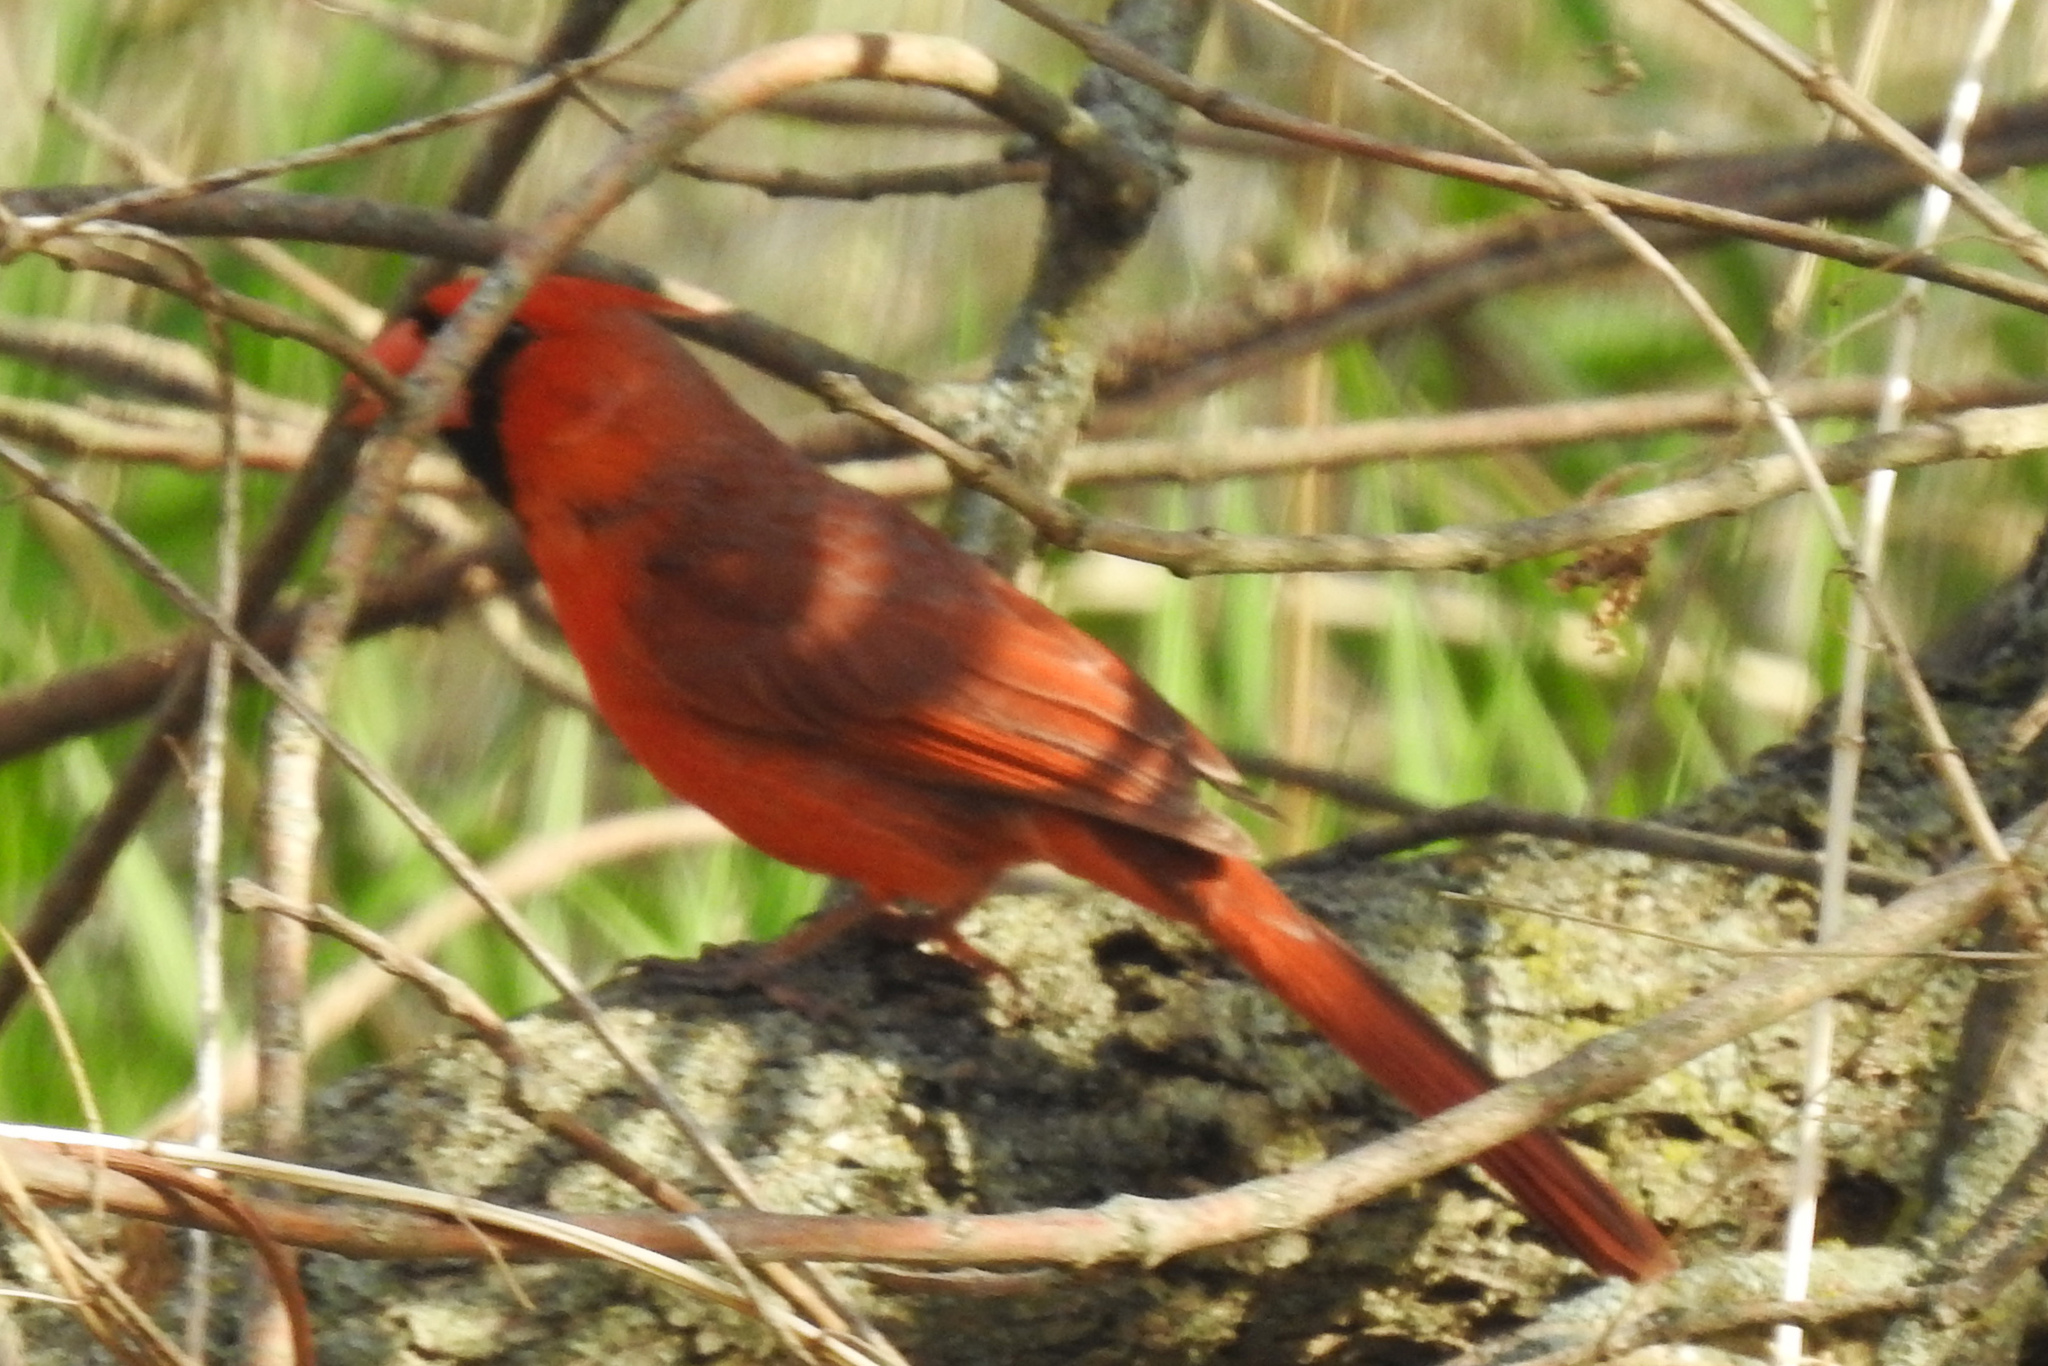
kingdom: Animalia
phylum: Chordata
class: Aves
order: Passeriformes
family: Cardinalidae
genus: Cardinalis
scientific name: Cardinalis cardinalis
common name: Northern cardinal
